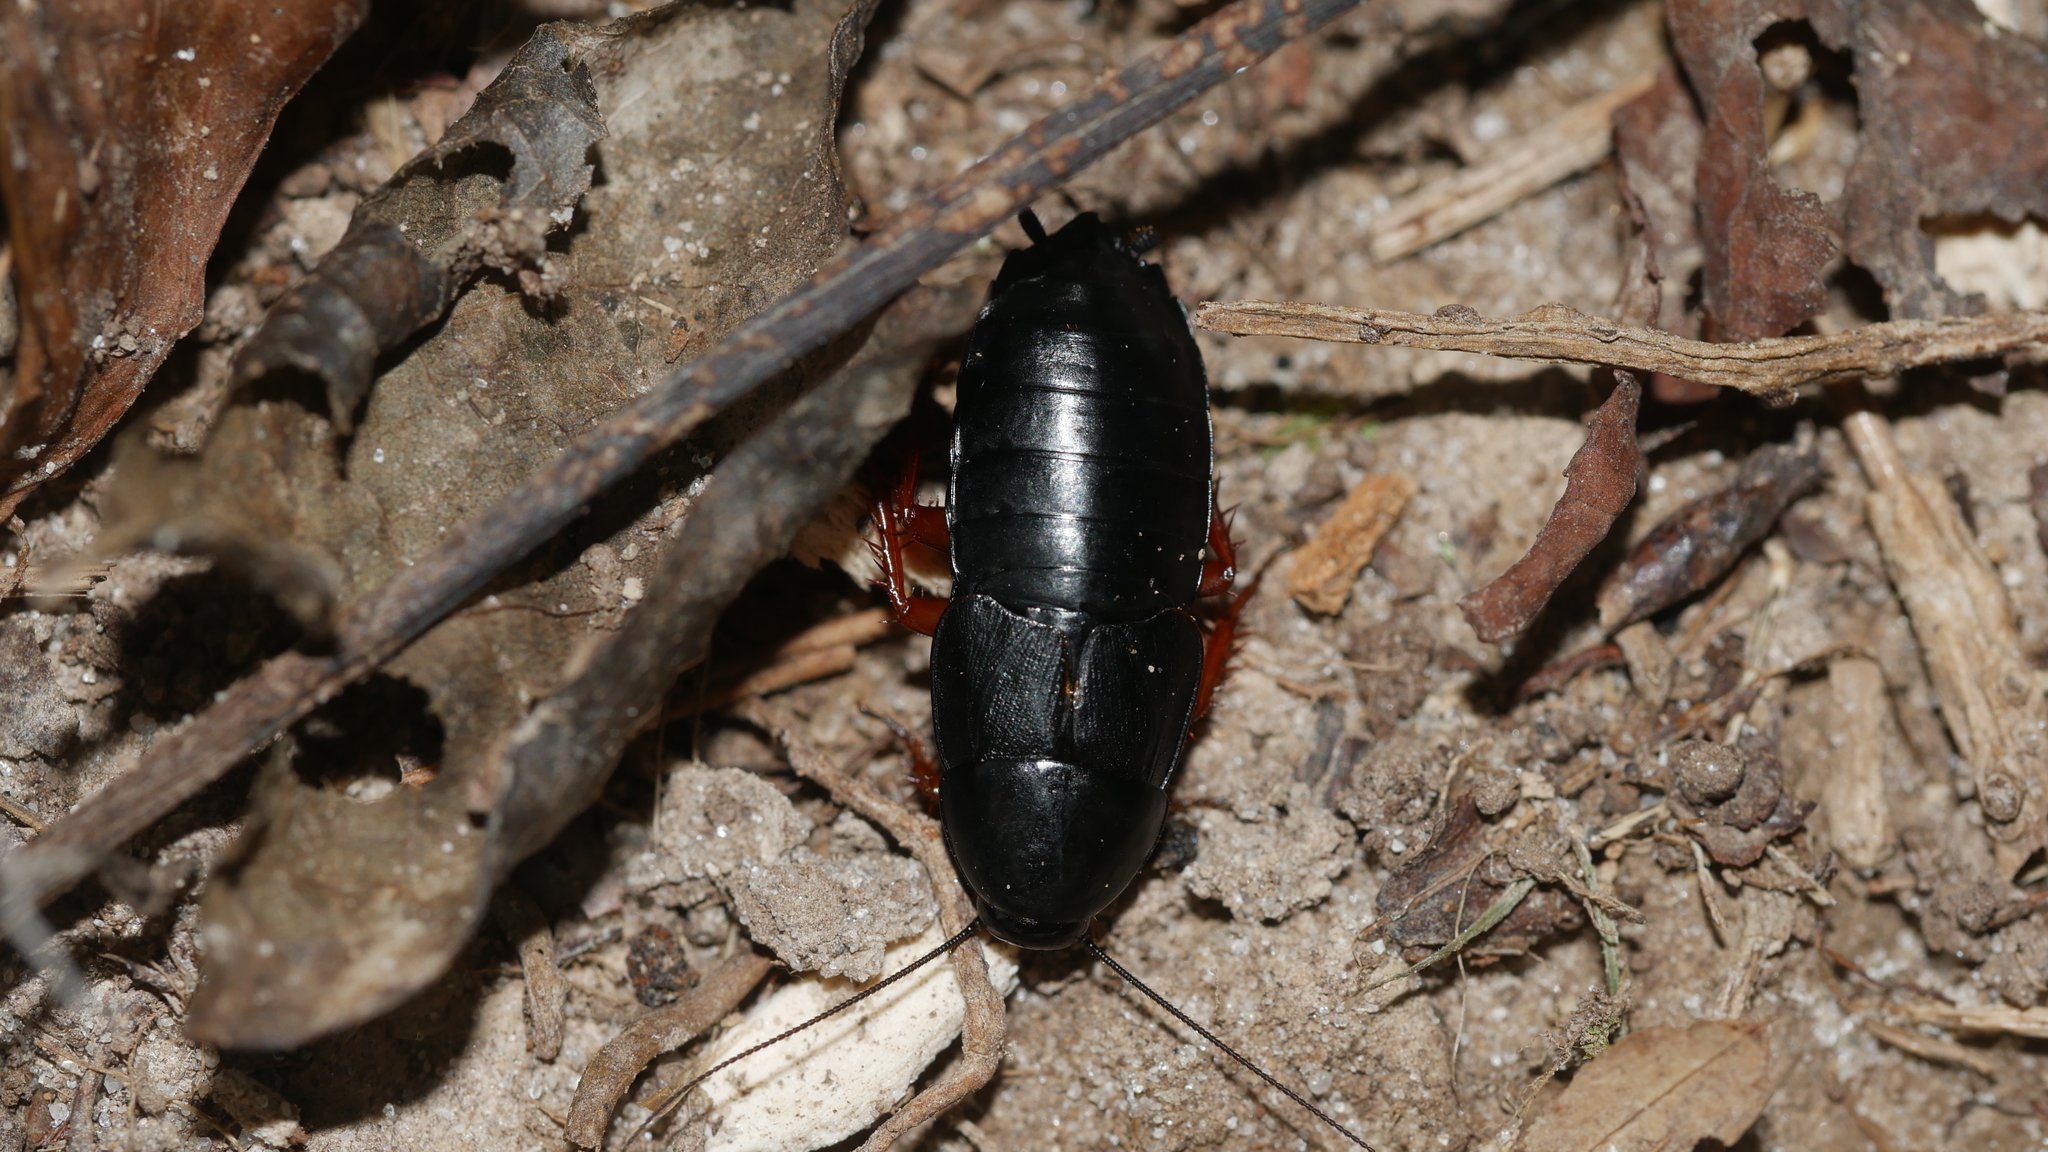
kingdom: Animalia
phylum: Arthropoda
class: Insecta
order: Blattodea
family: Ectobiidae
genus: Ischnoptera
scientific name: Ischnoptera deropeltiformis
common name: Dark wood cockroach
